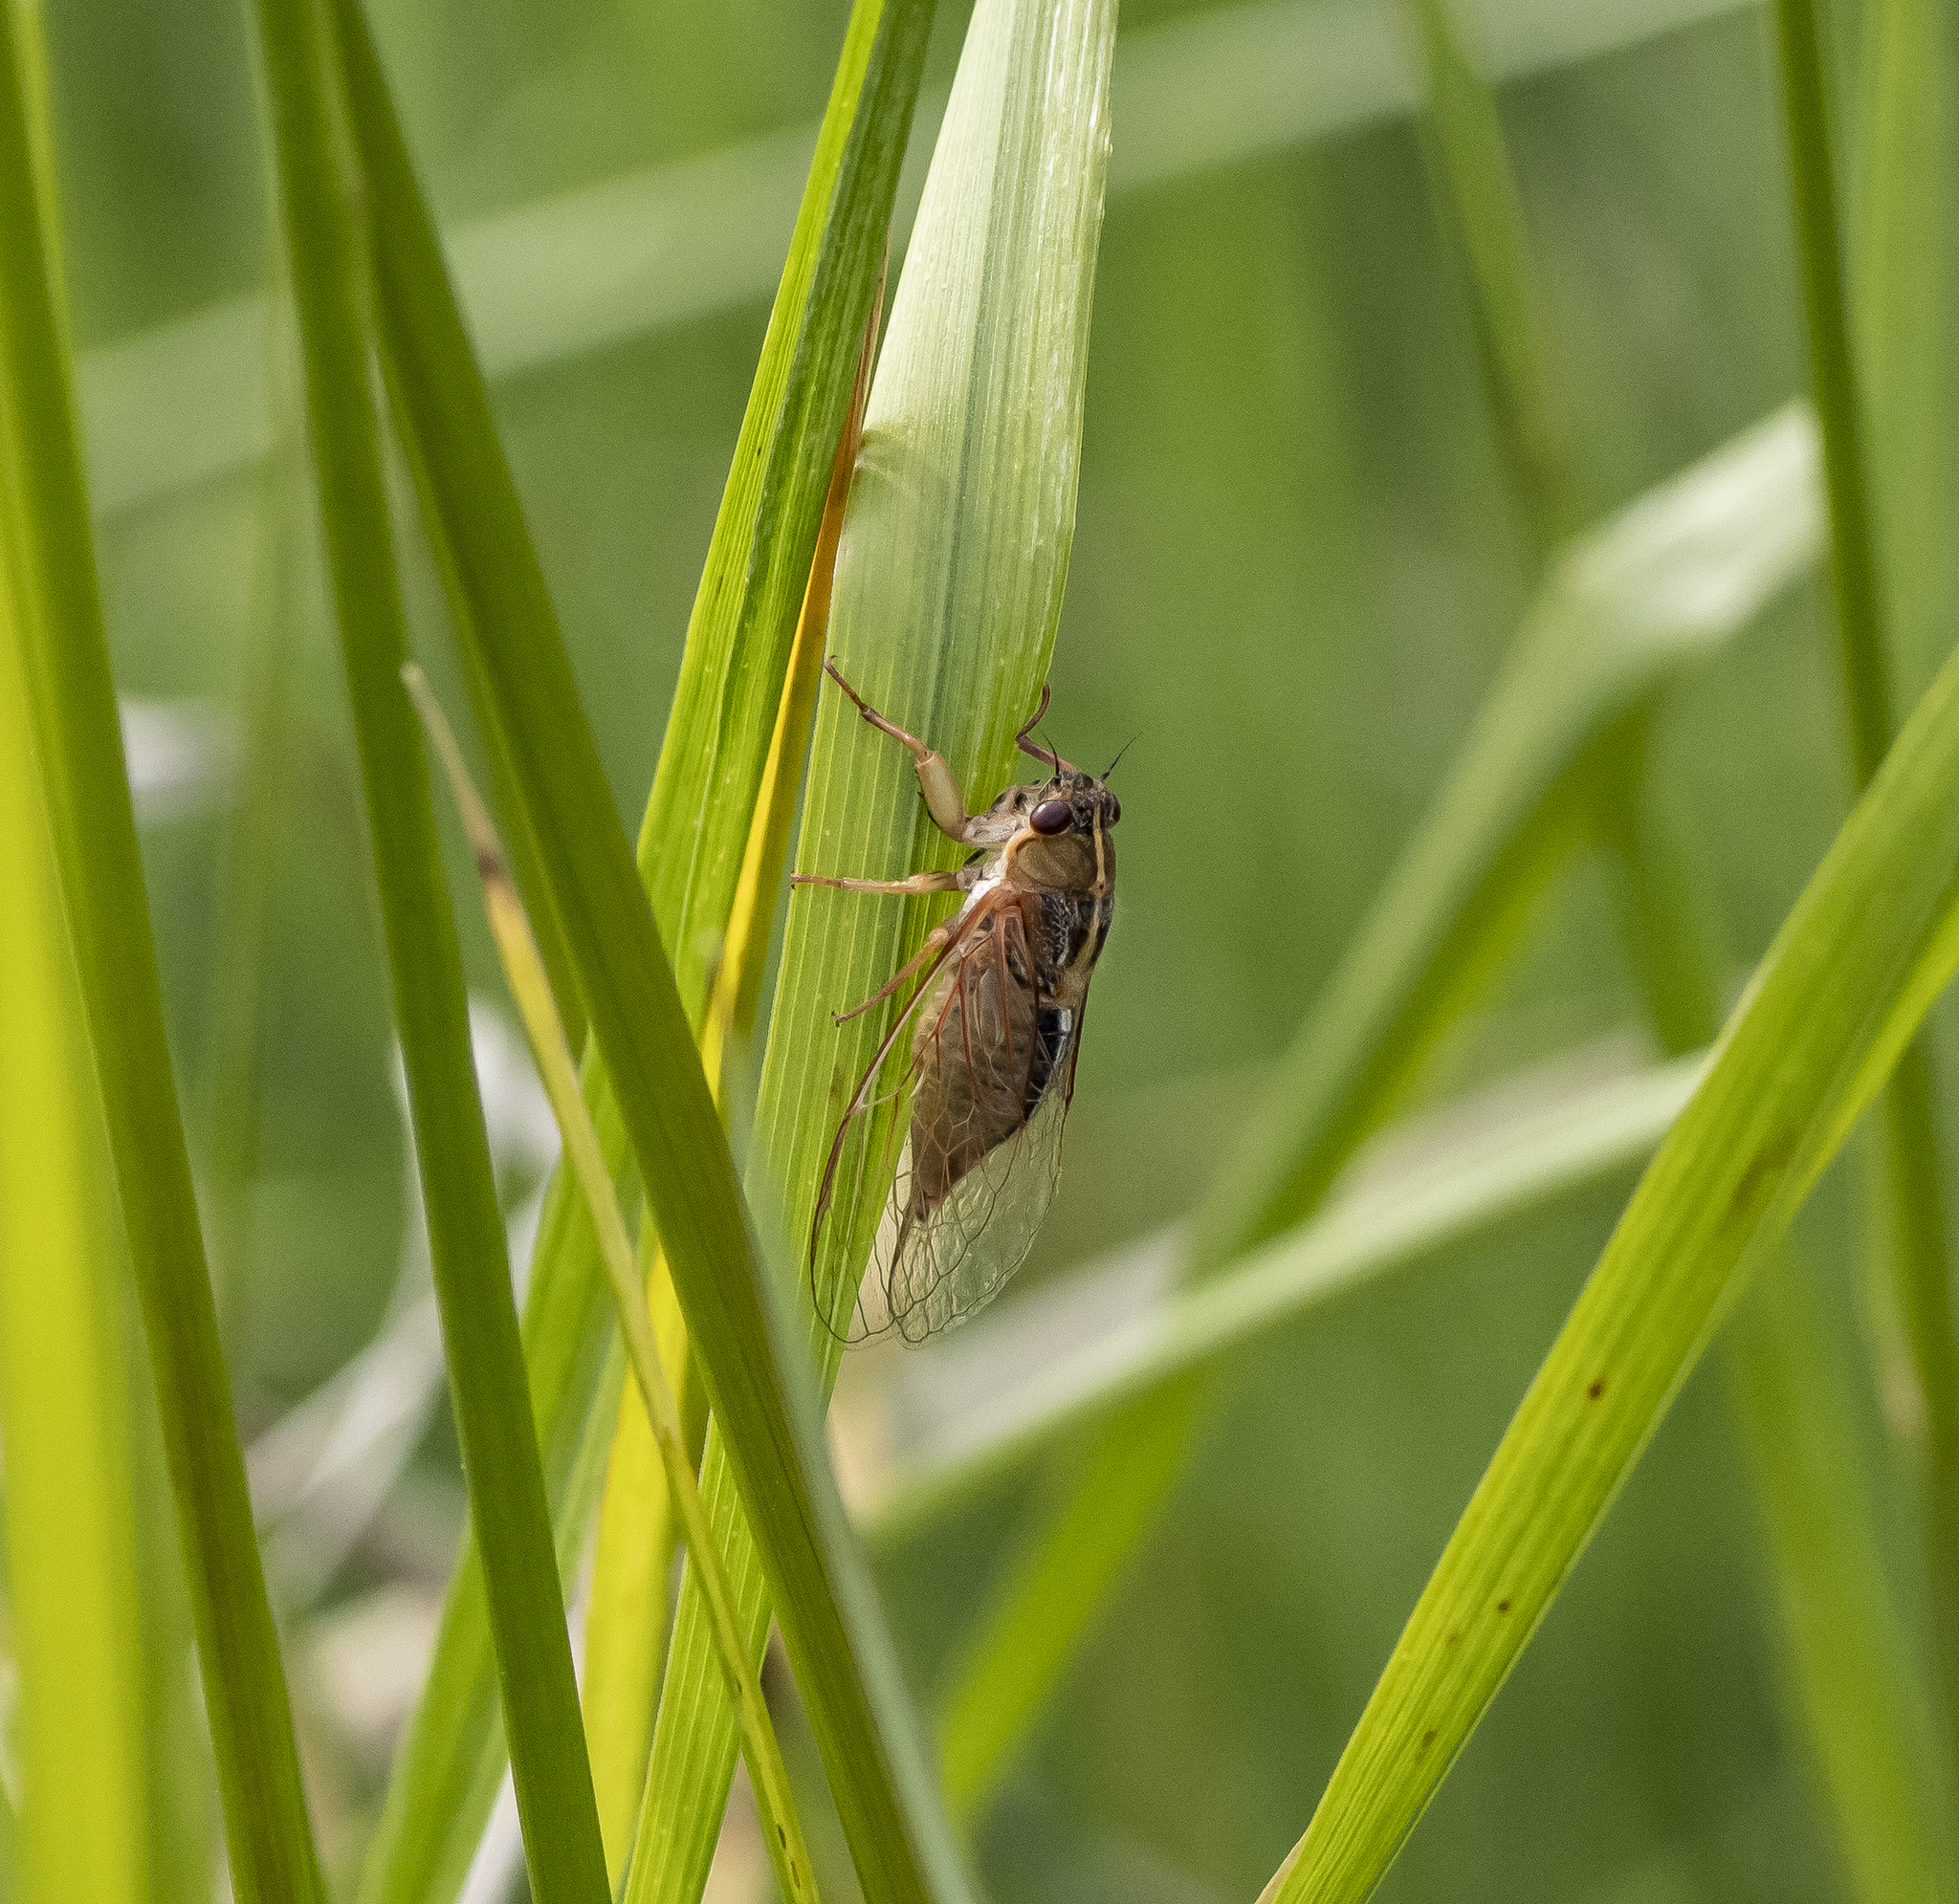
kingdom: Animalia
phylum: Arthropoda
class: Insecta
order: Hemiptera
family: Cicadidae
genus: Kikihia
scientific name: Kikihia muta
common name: Variable cicada
